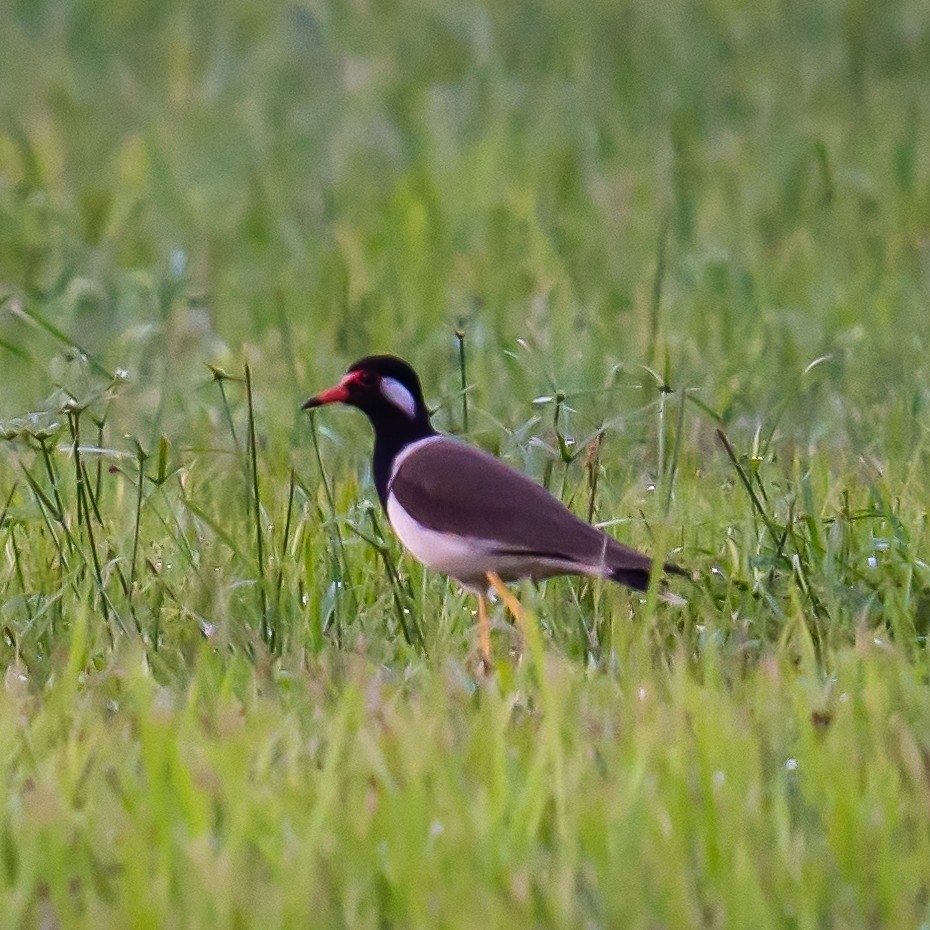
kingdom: Animalia
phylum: Chordata
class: Aves
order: Charadriiformes
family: Charadriidae
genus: Vanellus
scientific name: Vanellus indicus
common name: Red-wattled lapwing
